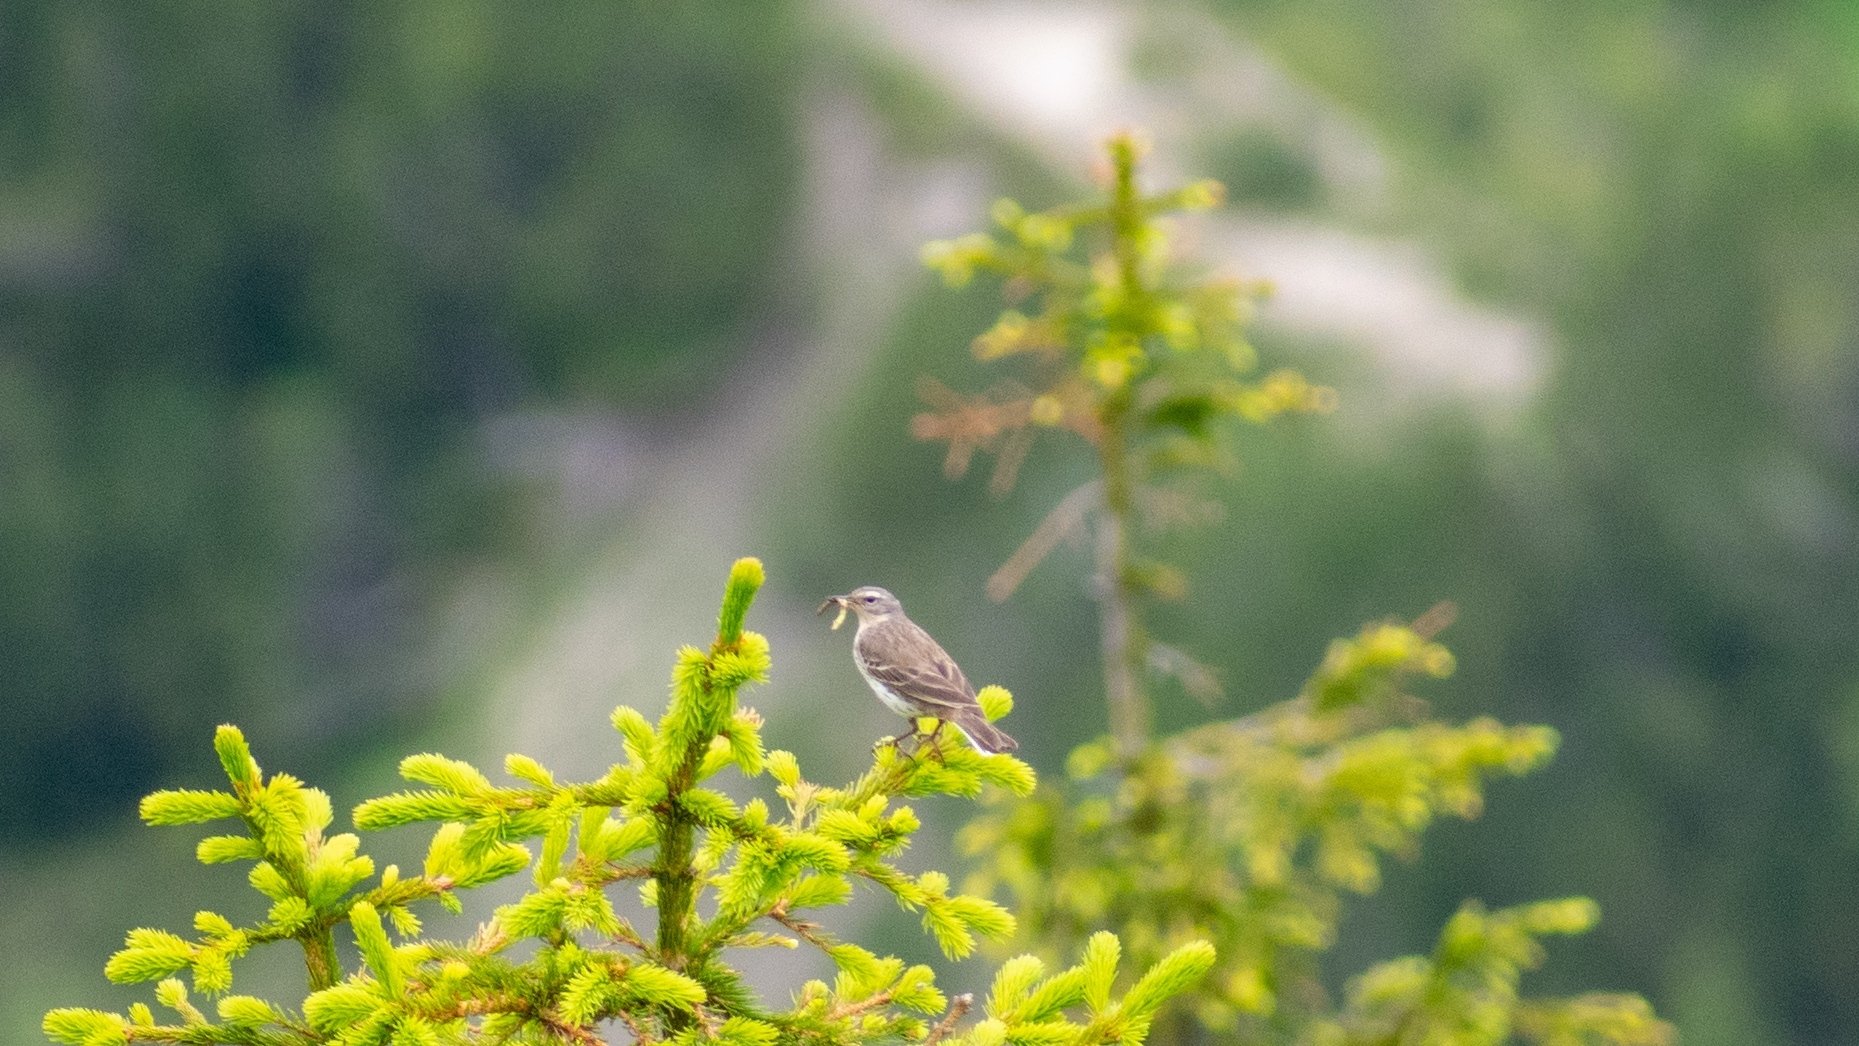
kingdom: Animalia
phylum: Chordata
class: Aves
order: Passeriformes
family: Motacillidae
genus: Anthus
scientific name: Anthus spinoletta
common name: Water pipit
